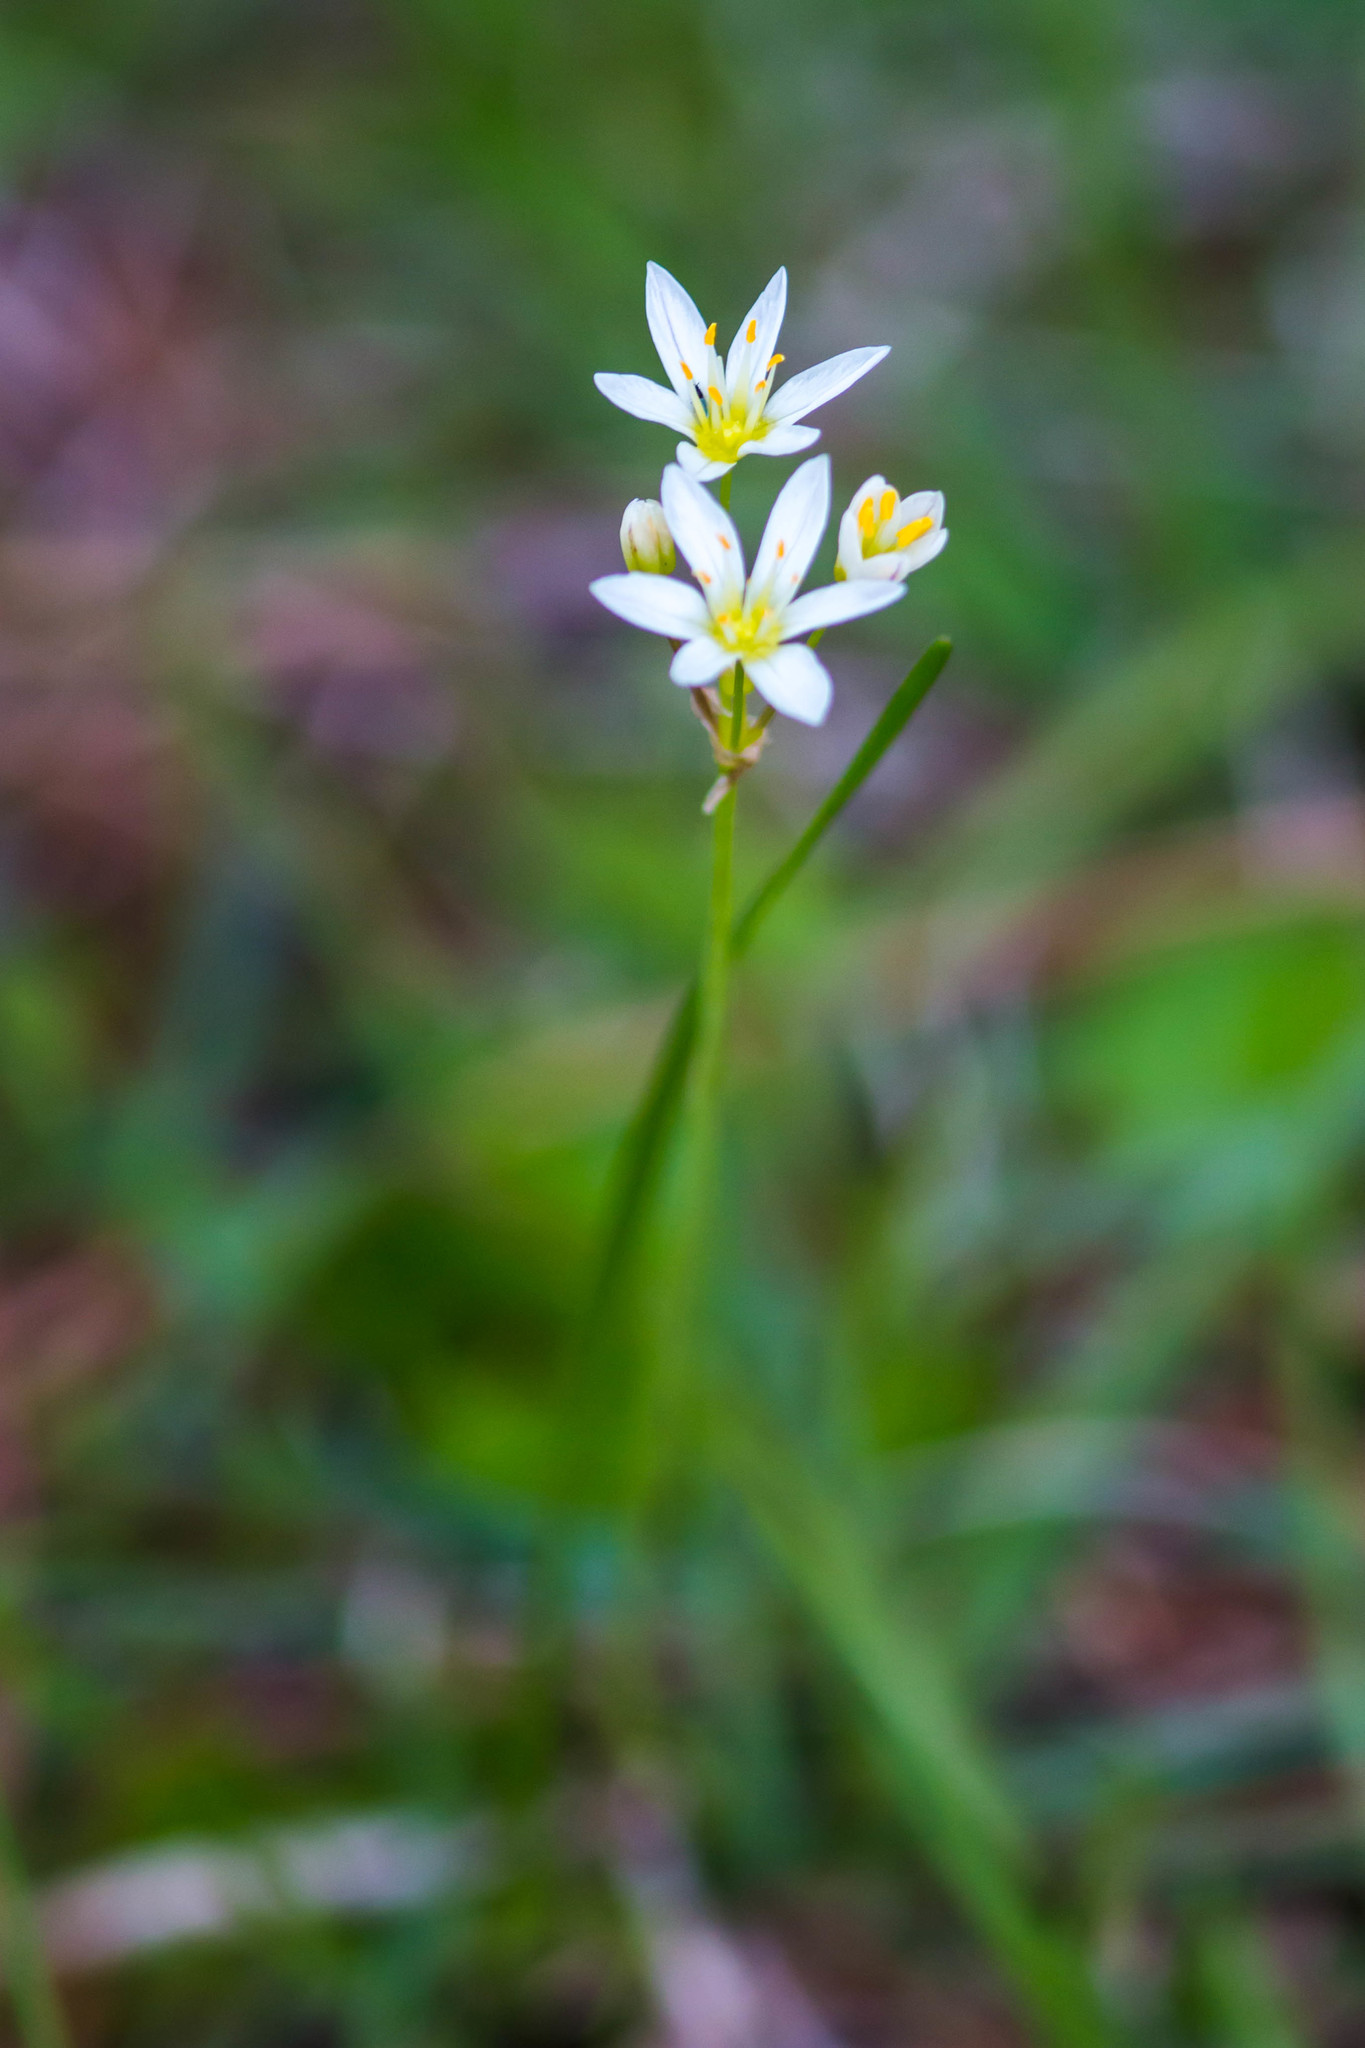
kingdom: Plantae
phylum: Tracheophyta
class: Liliopsida
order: Asparagales
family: Amaryllidaceae
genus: Nothoscordum
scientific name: Nothoscordum bivalve
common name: Crow-poison
